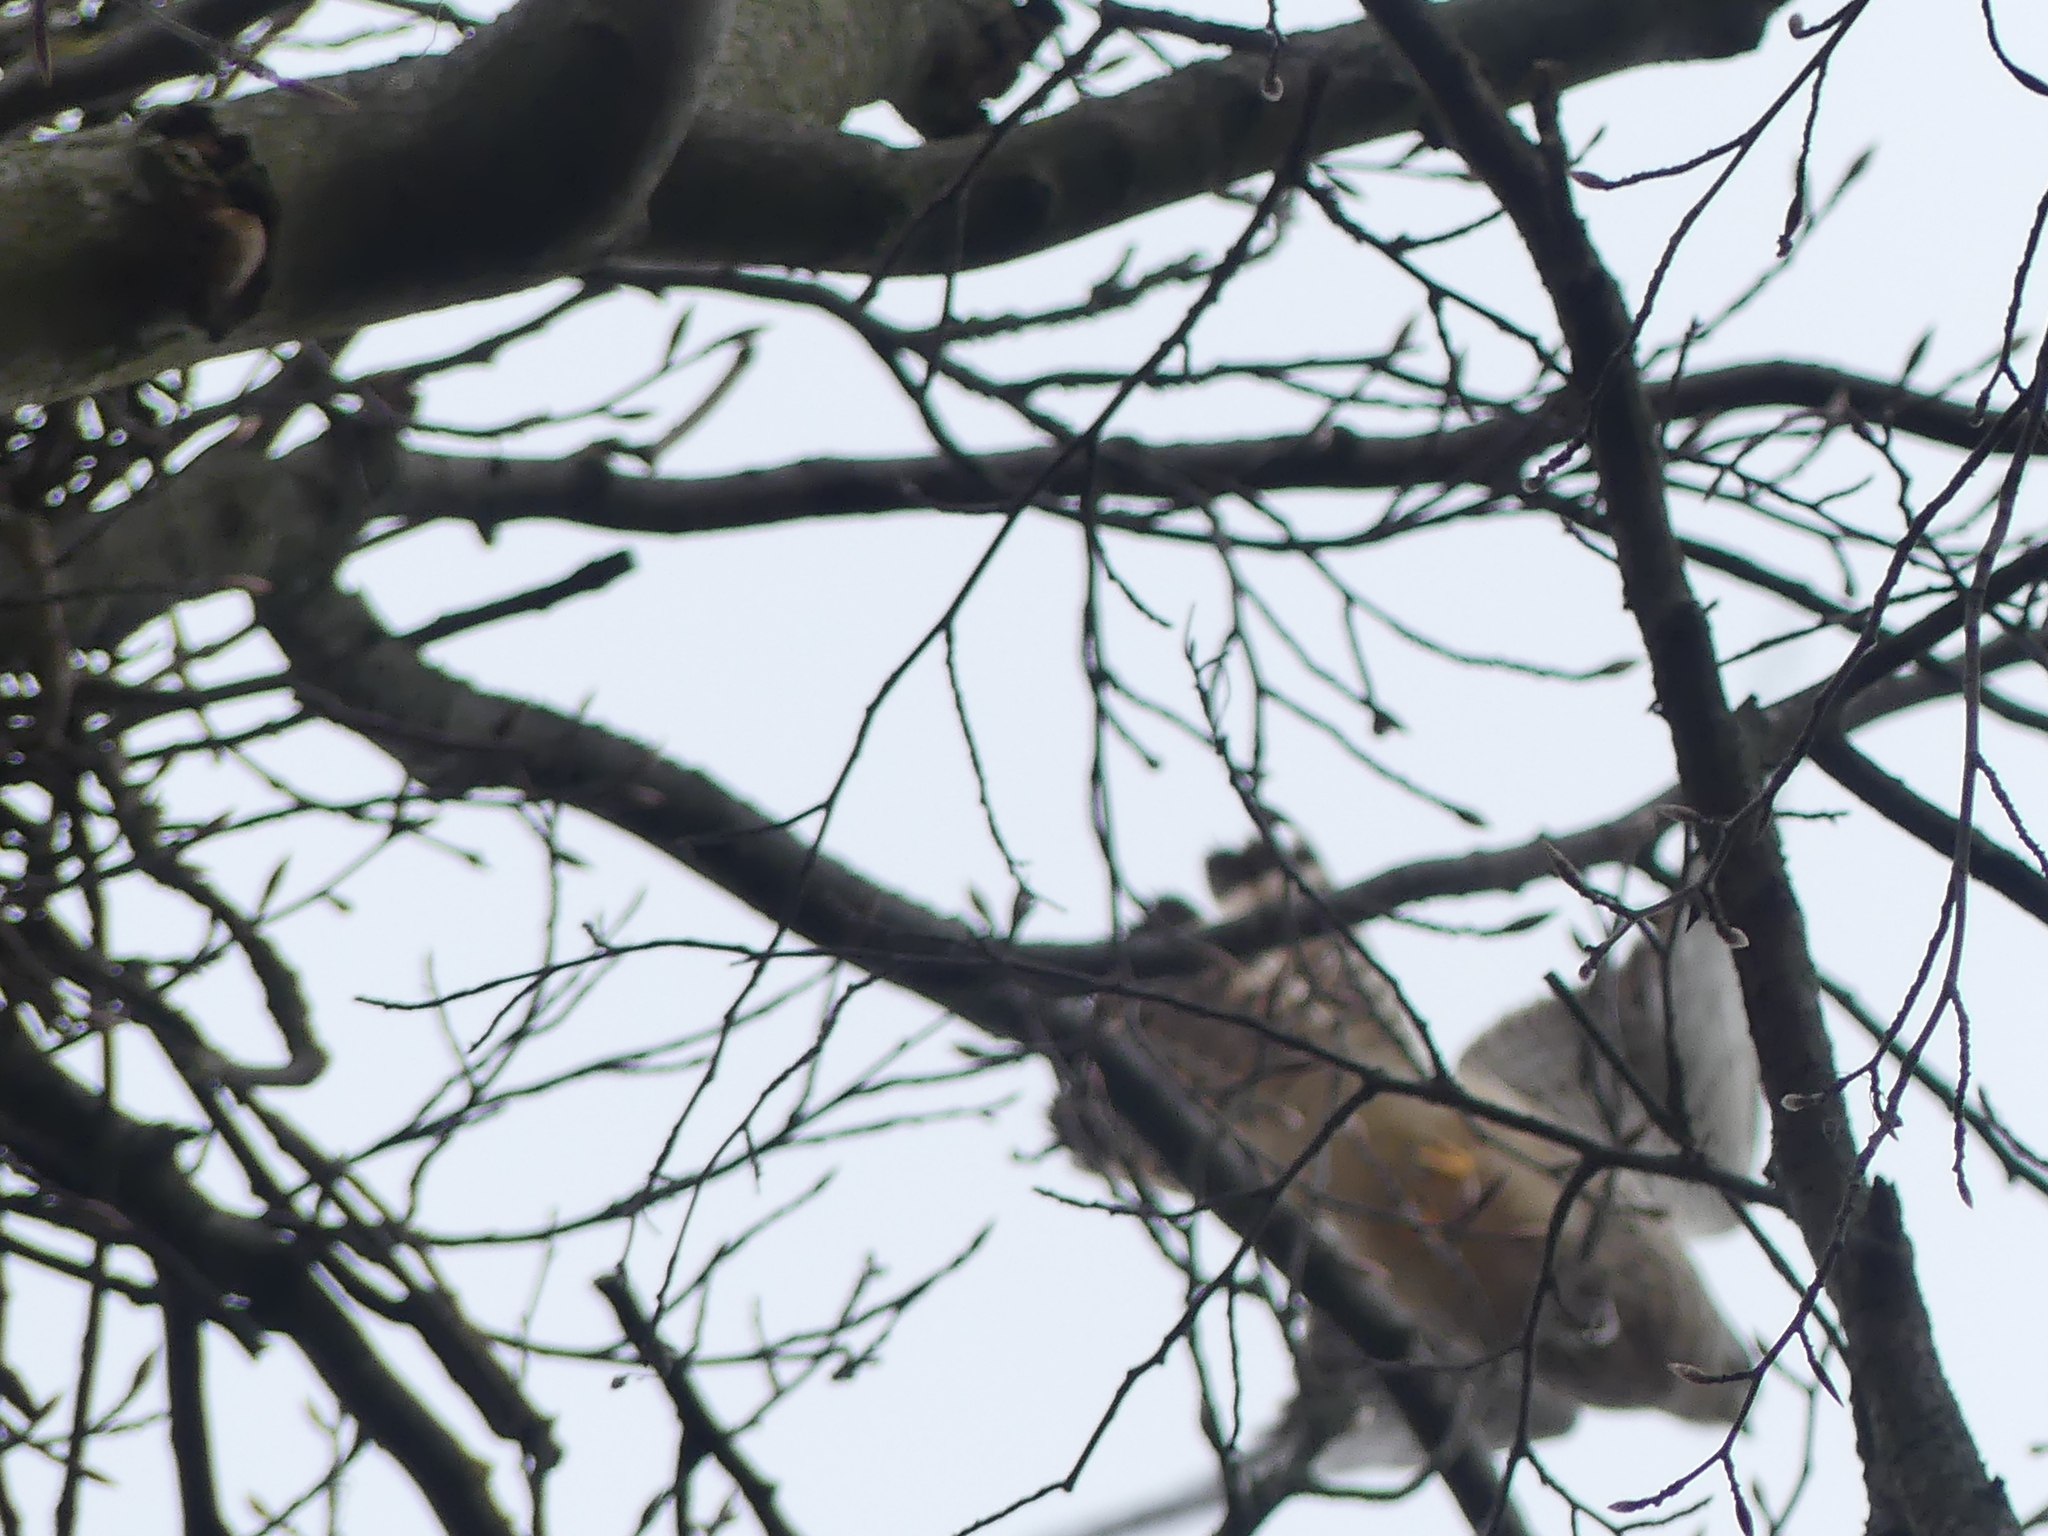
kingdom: Animalia
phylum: Chordata
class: Aves
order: Falconiformes
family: Falconidae
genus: Falco
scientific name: Falco tinnunculus
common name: Common kestrel
